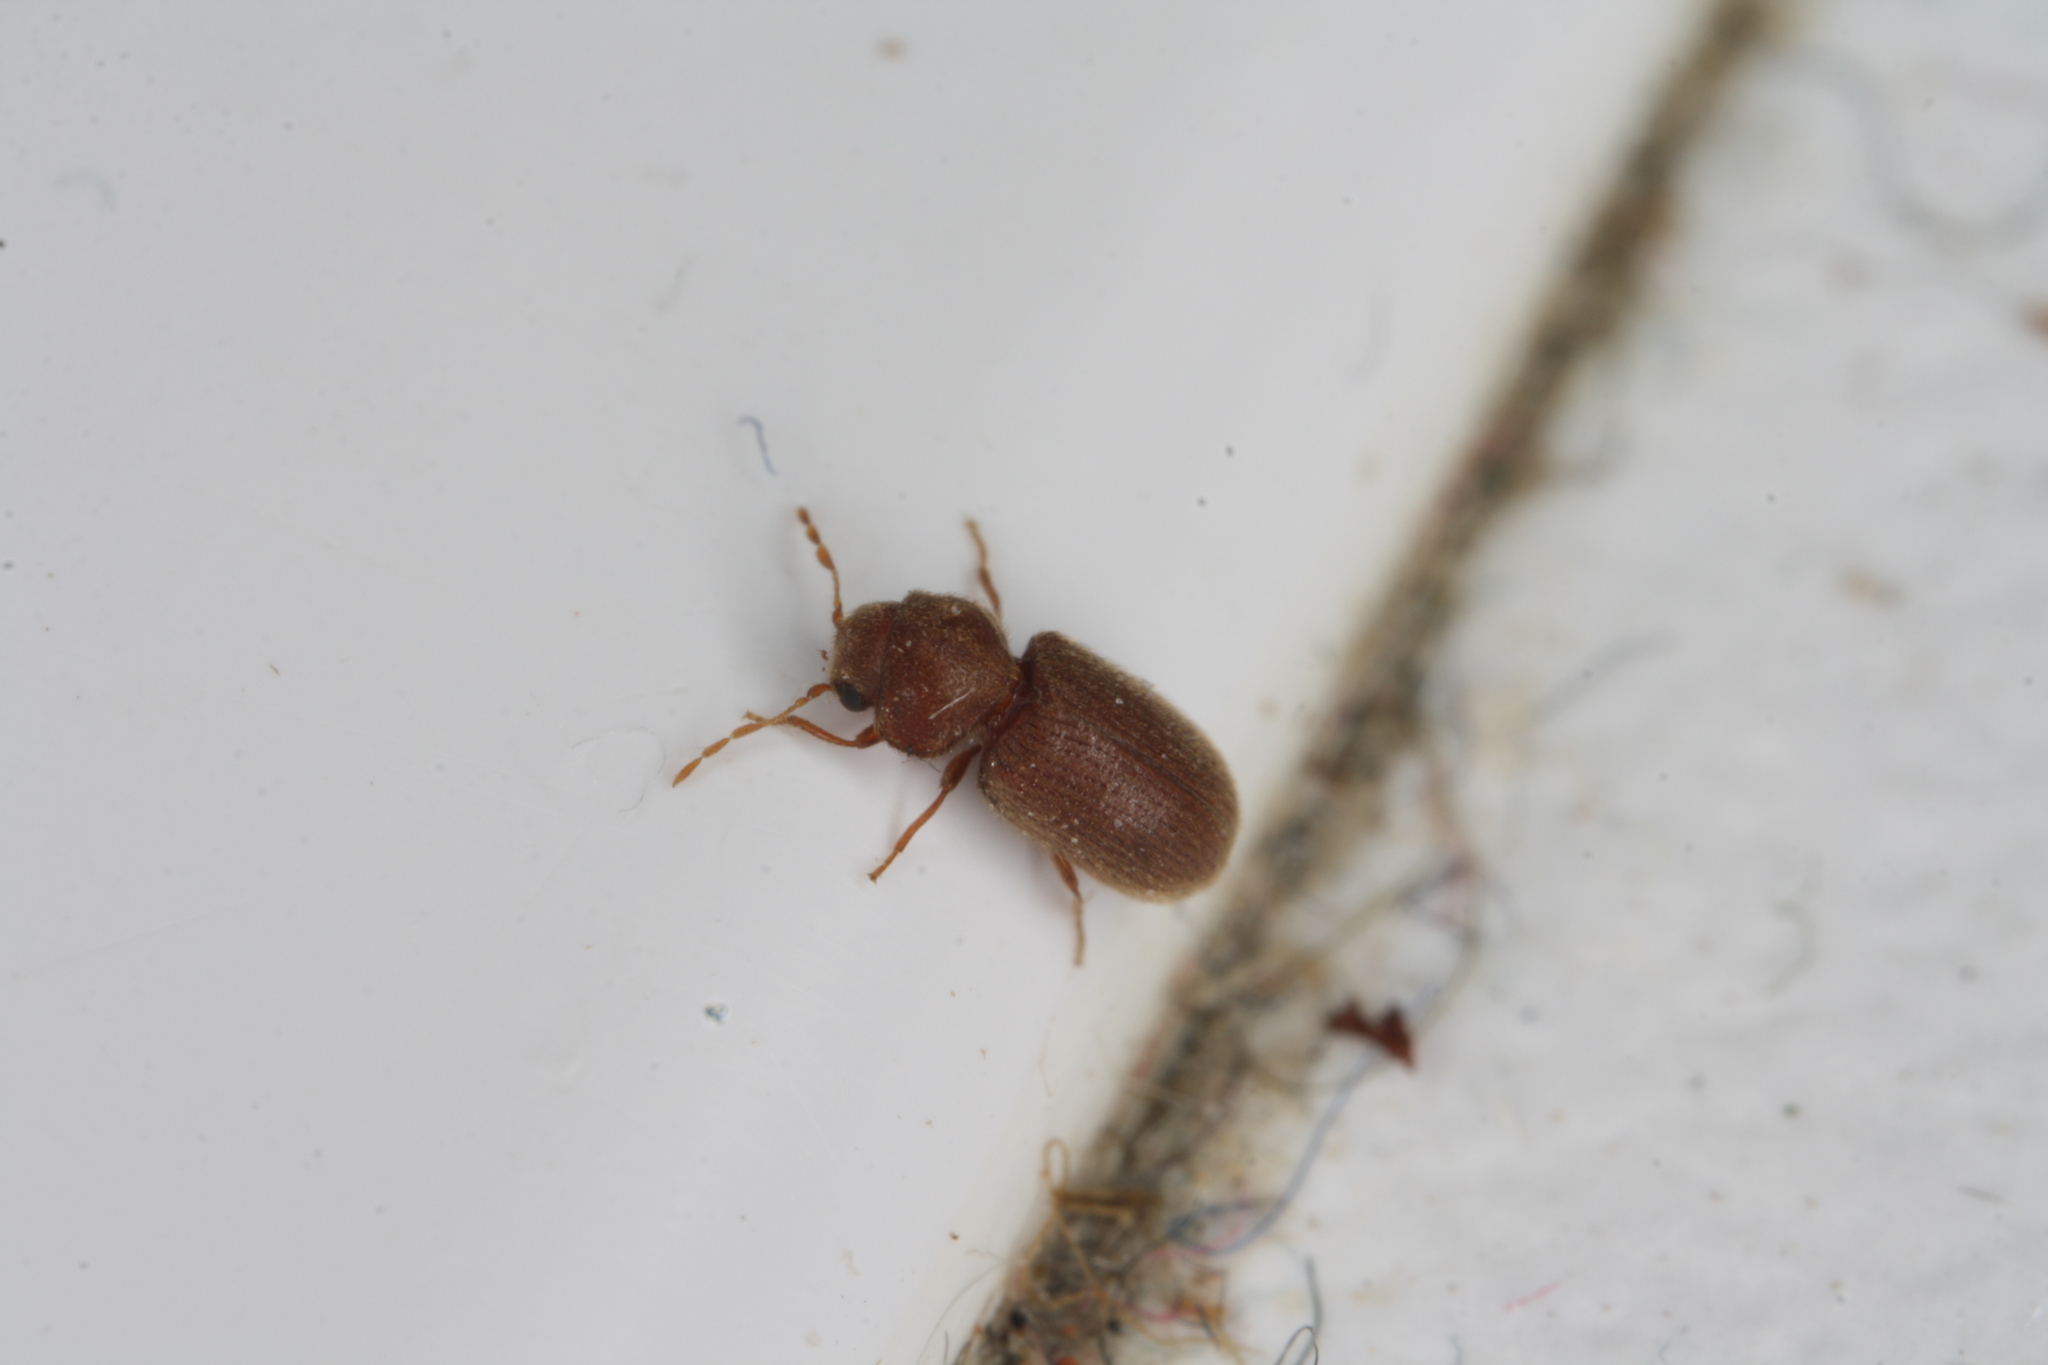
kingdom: Animalia
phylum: Arthropoda
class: Insecta
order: Coleoptera
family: Anobiidae
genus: Stegobium
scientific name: Stegobium paniceum
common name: Drugstore beetle
